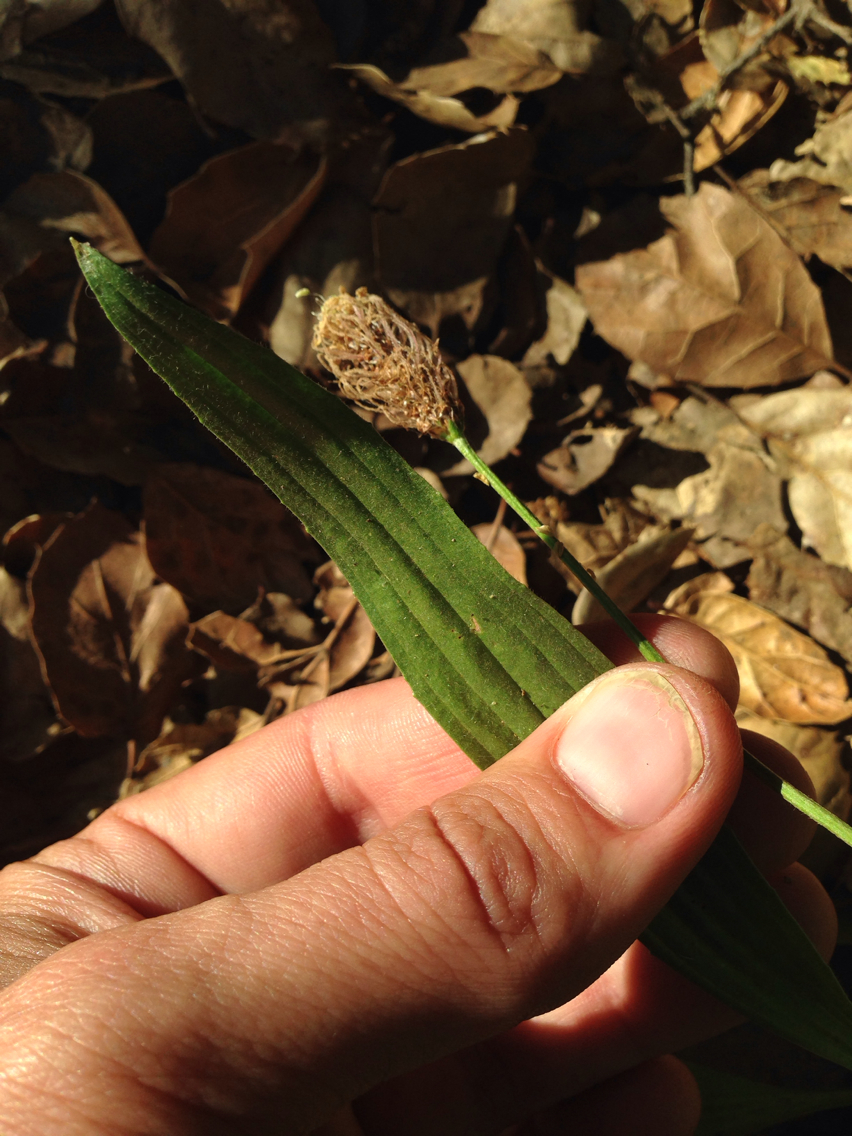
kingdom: Plantae
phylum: Tracheophyta
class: Magnoliopsida
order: Lamiales
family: Plantaginaceae
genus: Plantago
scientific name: Plantago lanceolata
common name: Ribwort plantain
